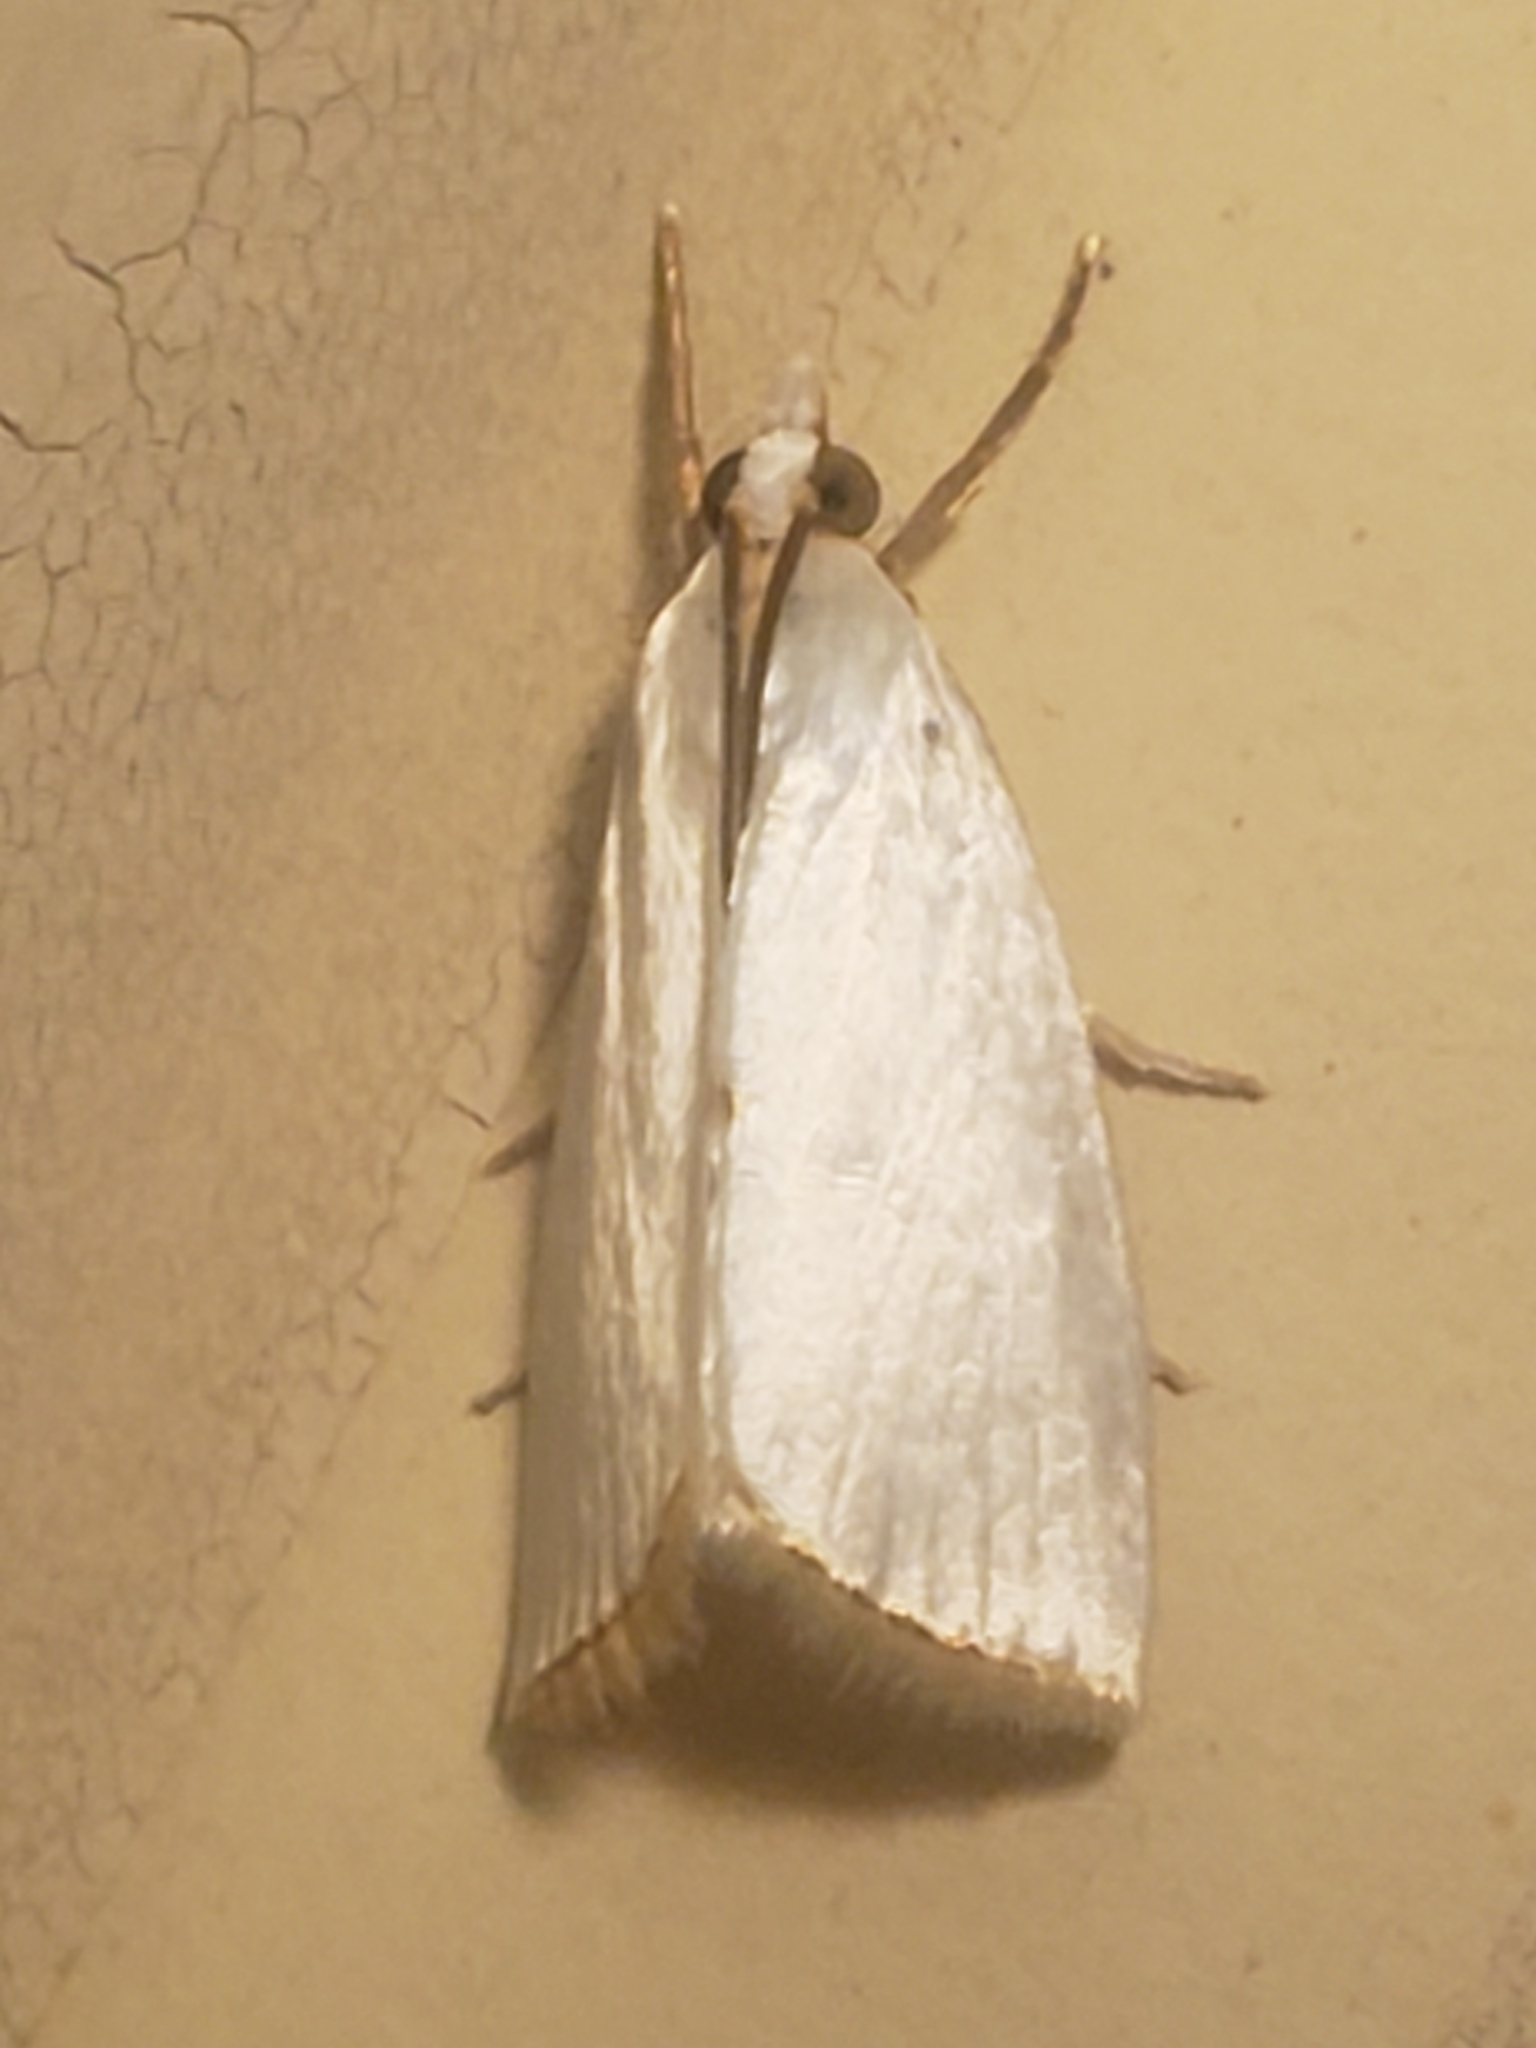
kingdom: Animalia
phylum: Arthropoda
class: Insecta
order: Lepidoptera
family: Crambidae
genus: Argyria
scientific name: Argyria nivalis
